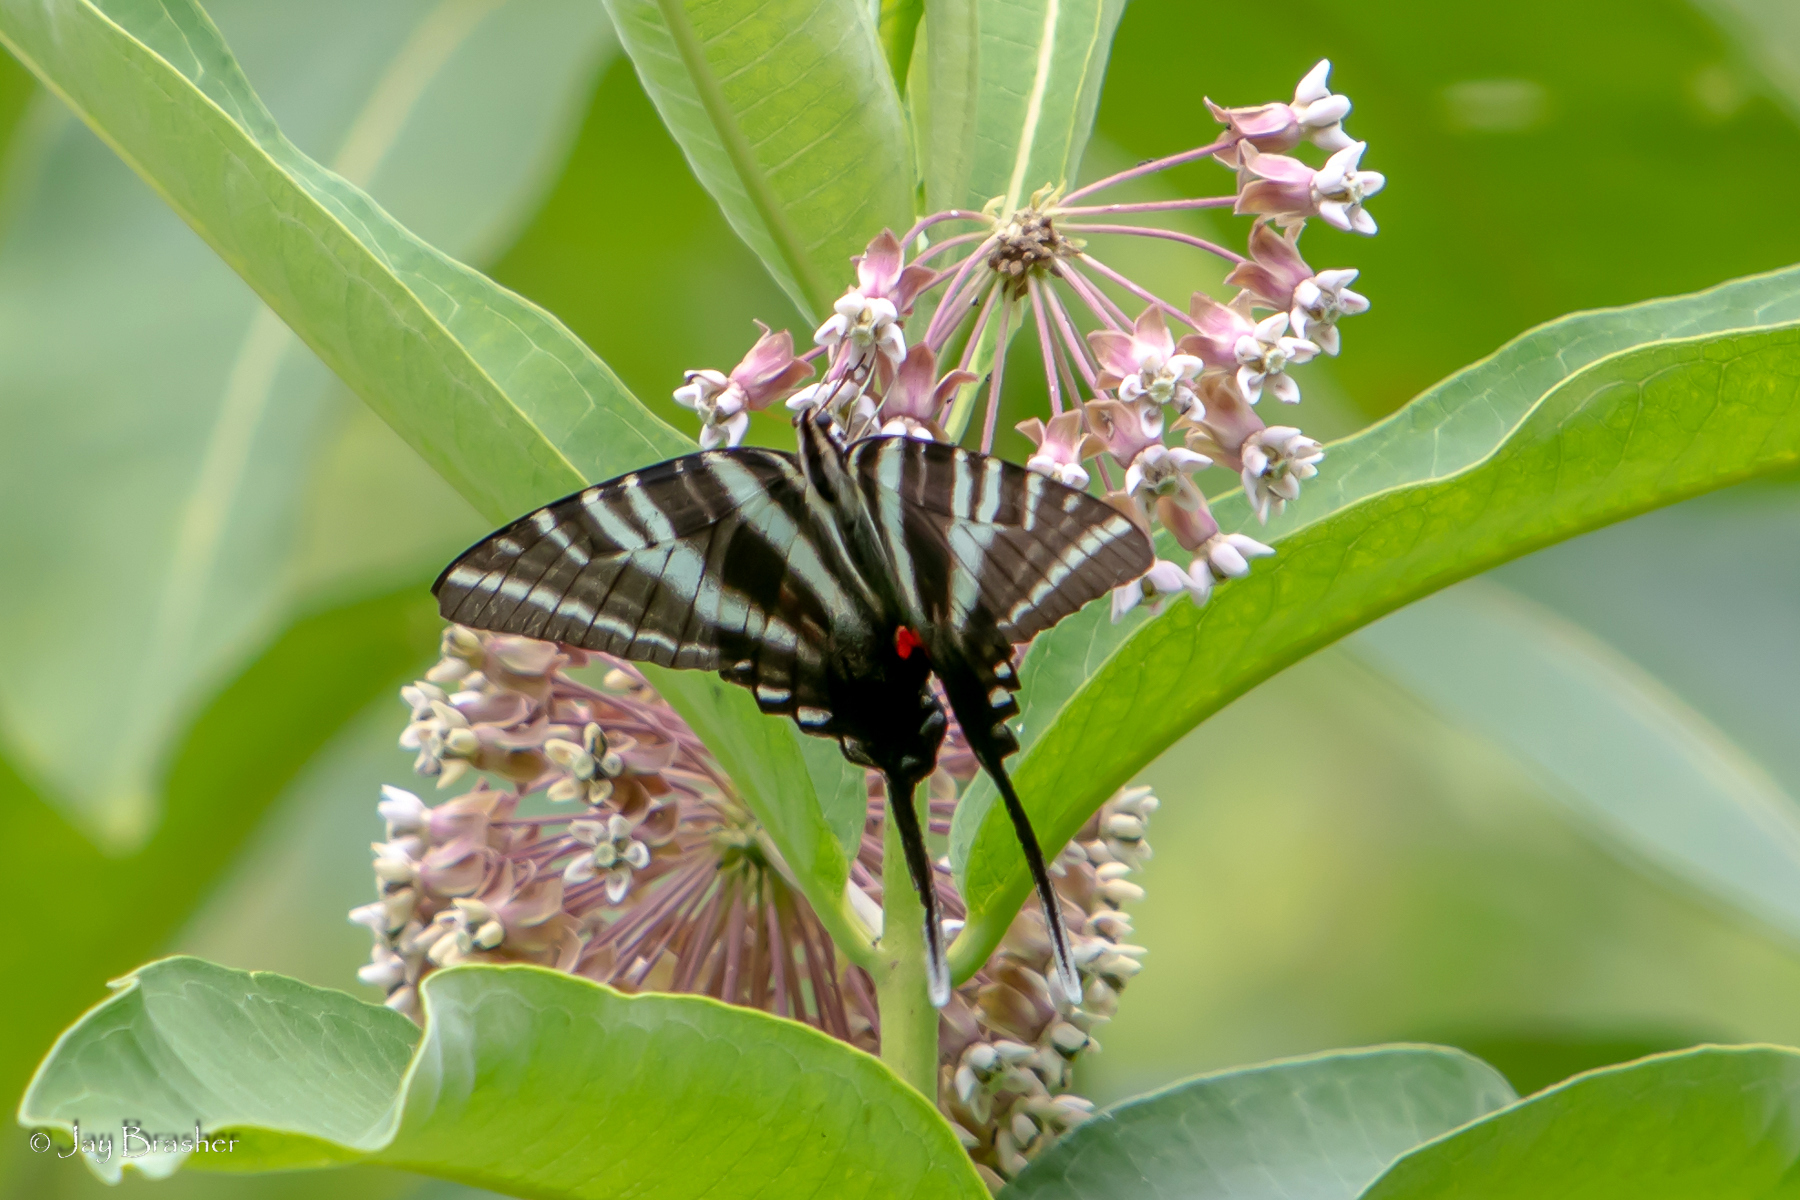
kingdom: Animalia
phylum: Arthropoda
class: Insecta
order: Lepidoptera
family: Papilionidae
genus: Protographium
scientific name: Protographium marcellus
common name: Zebra swallowtail
